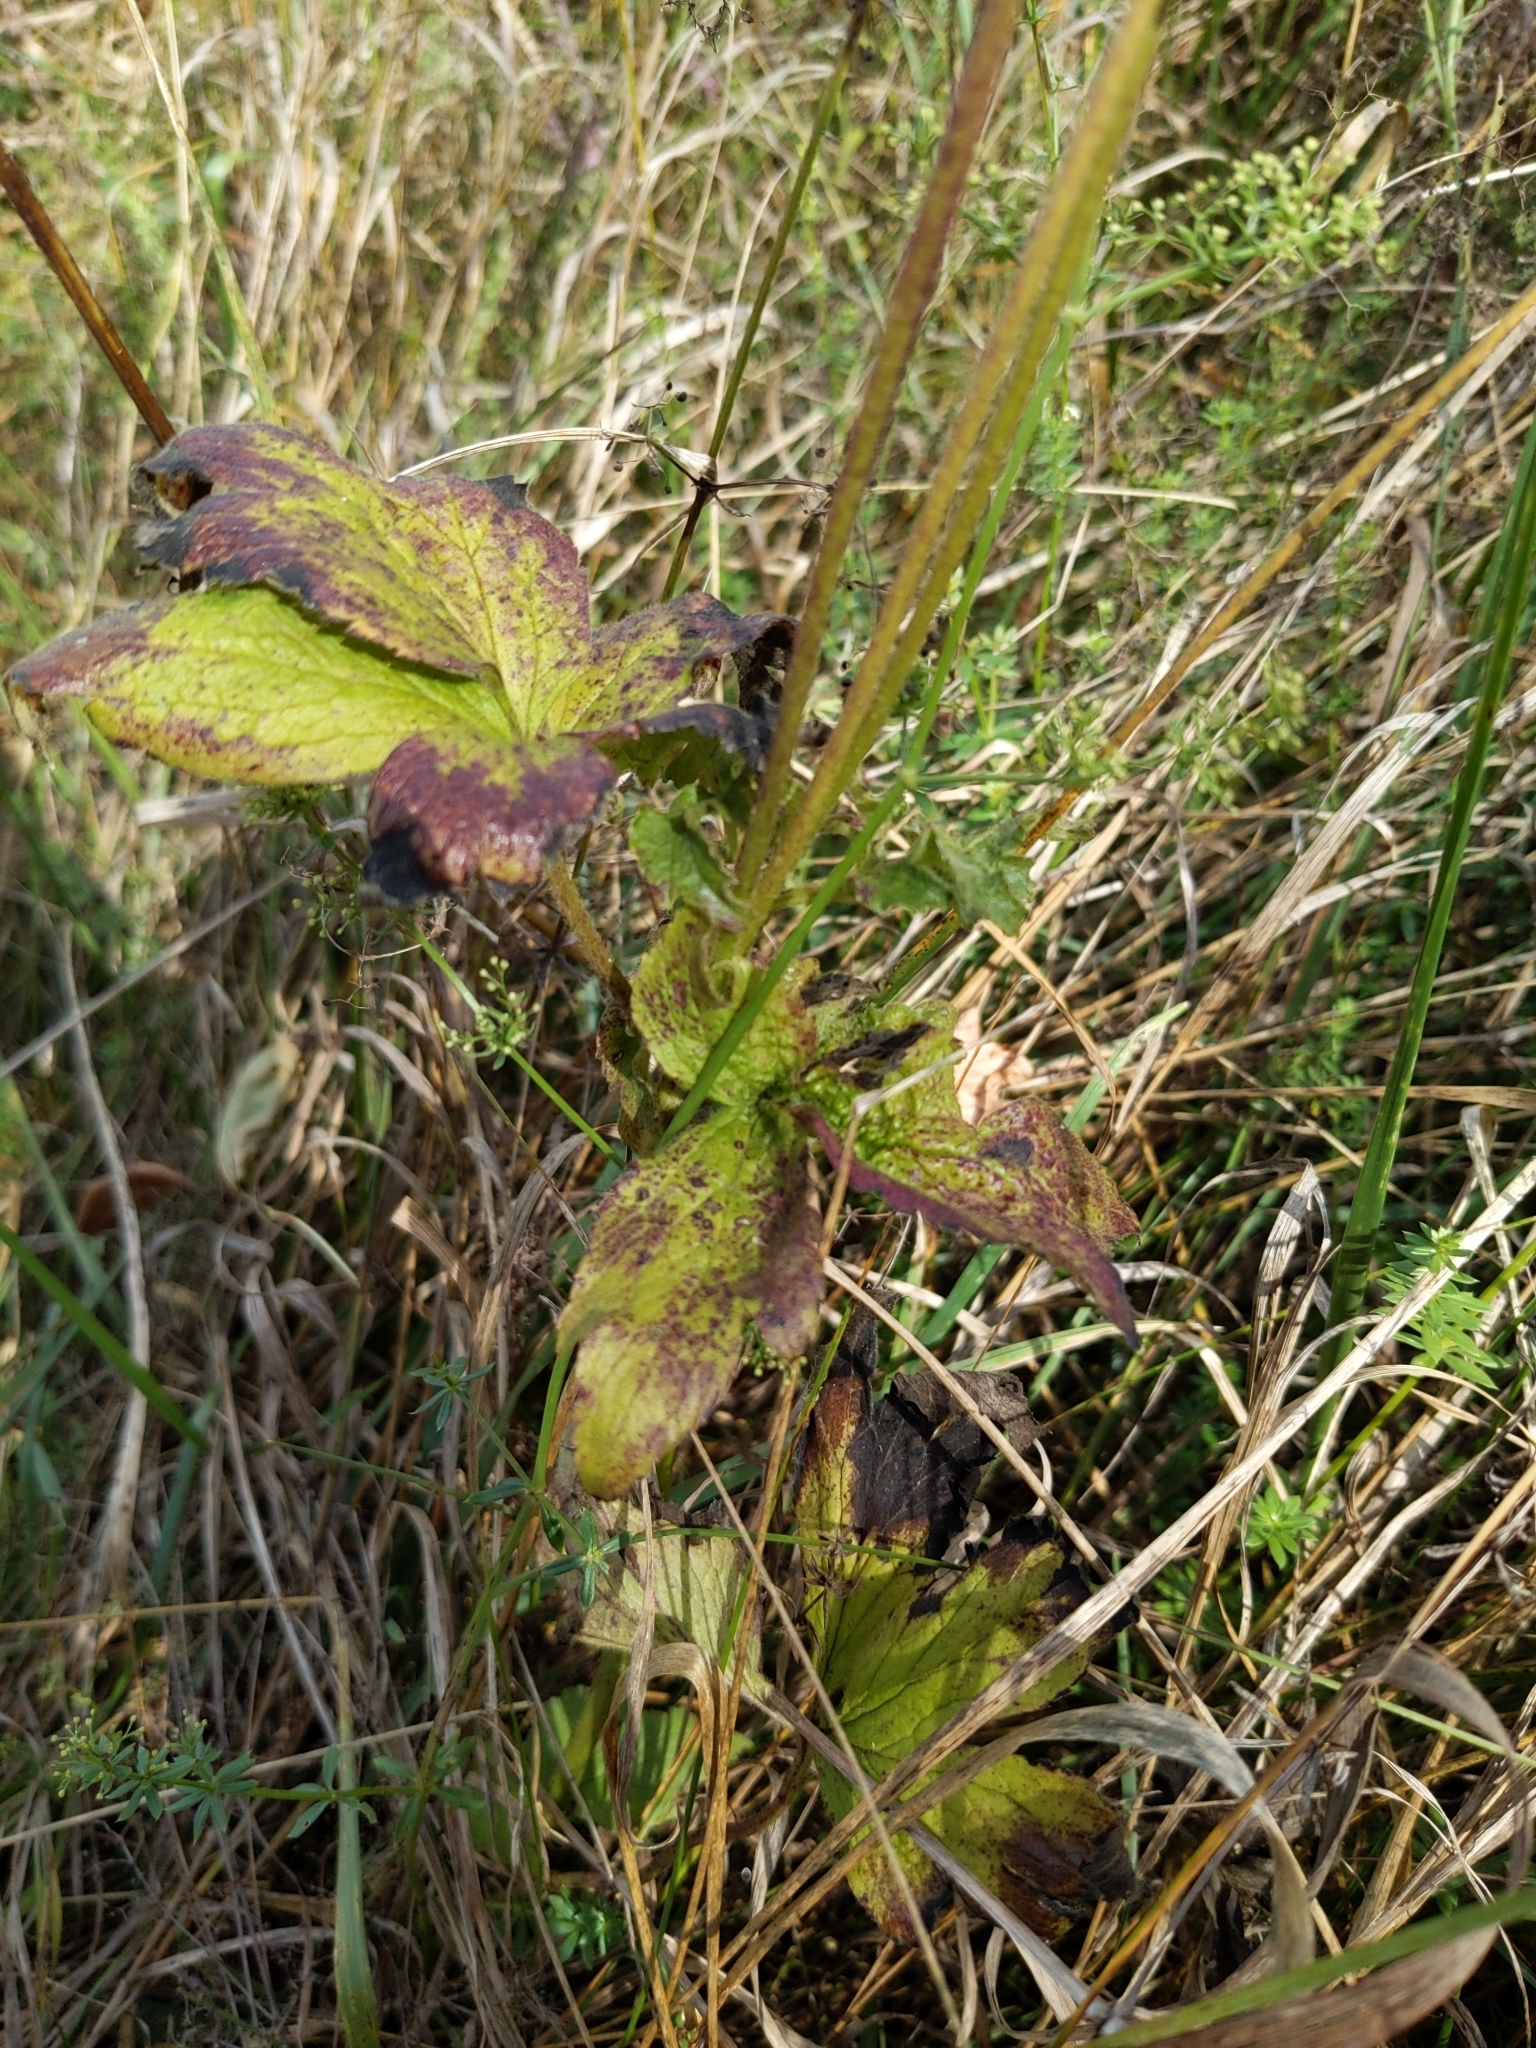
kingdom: Plantae
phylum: Tracheophyta
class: Magnoliopsida
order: Ranunculales
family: Ranunculaceae
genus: Anemone
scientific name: Anemone virginiana
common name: Tall anemone
